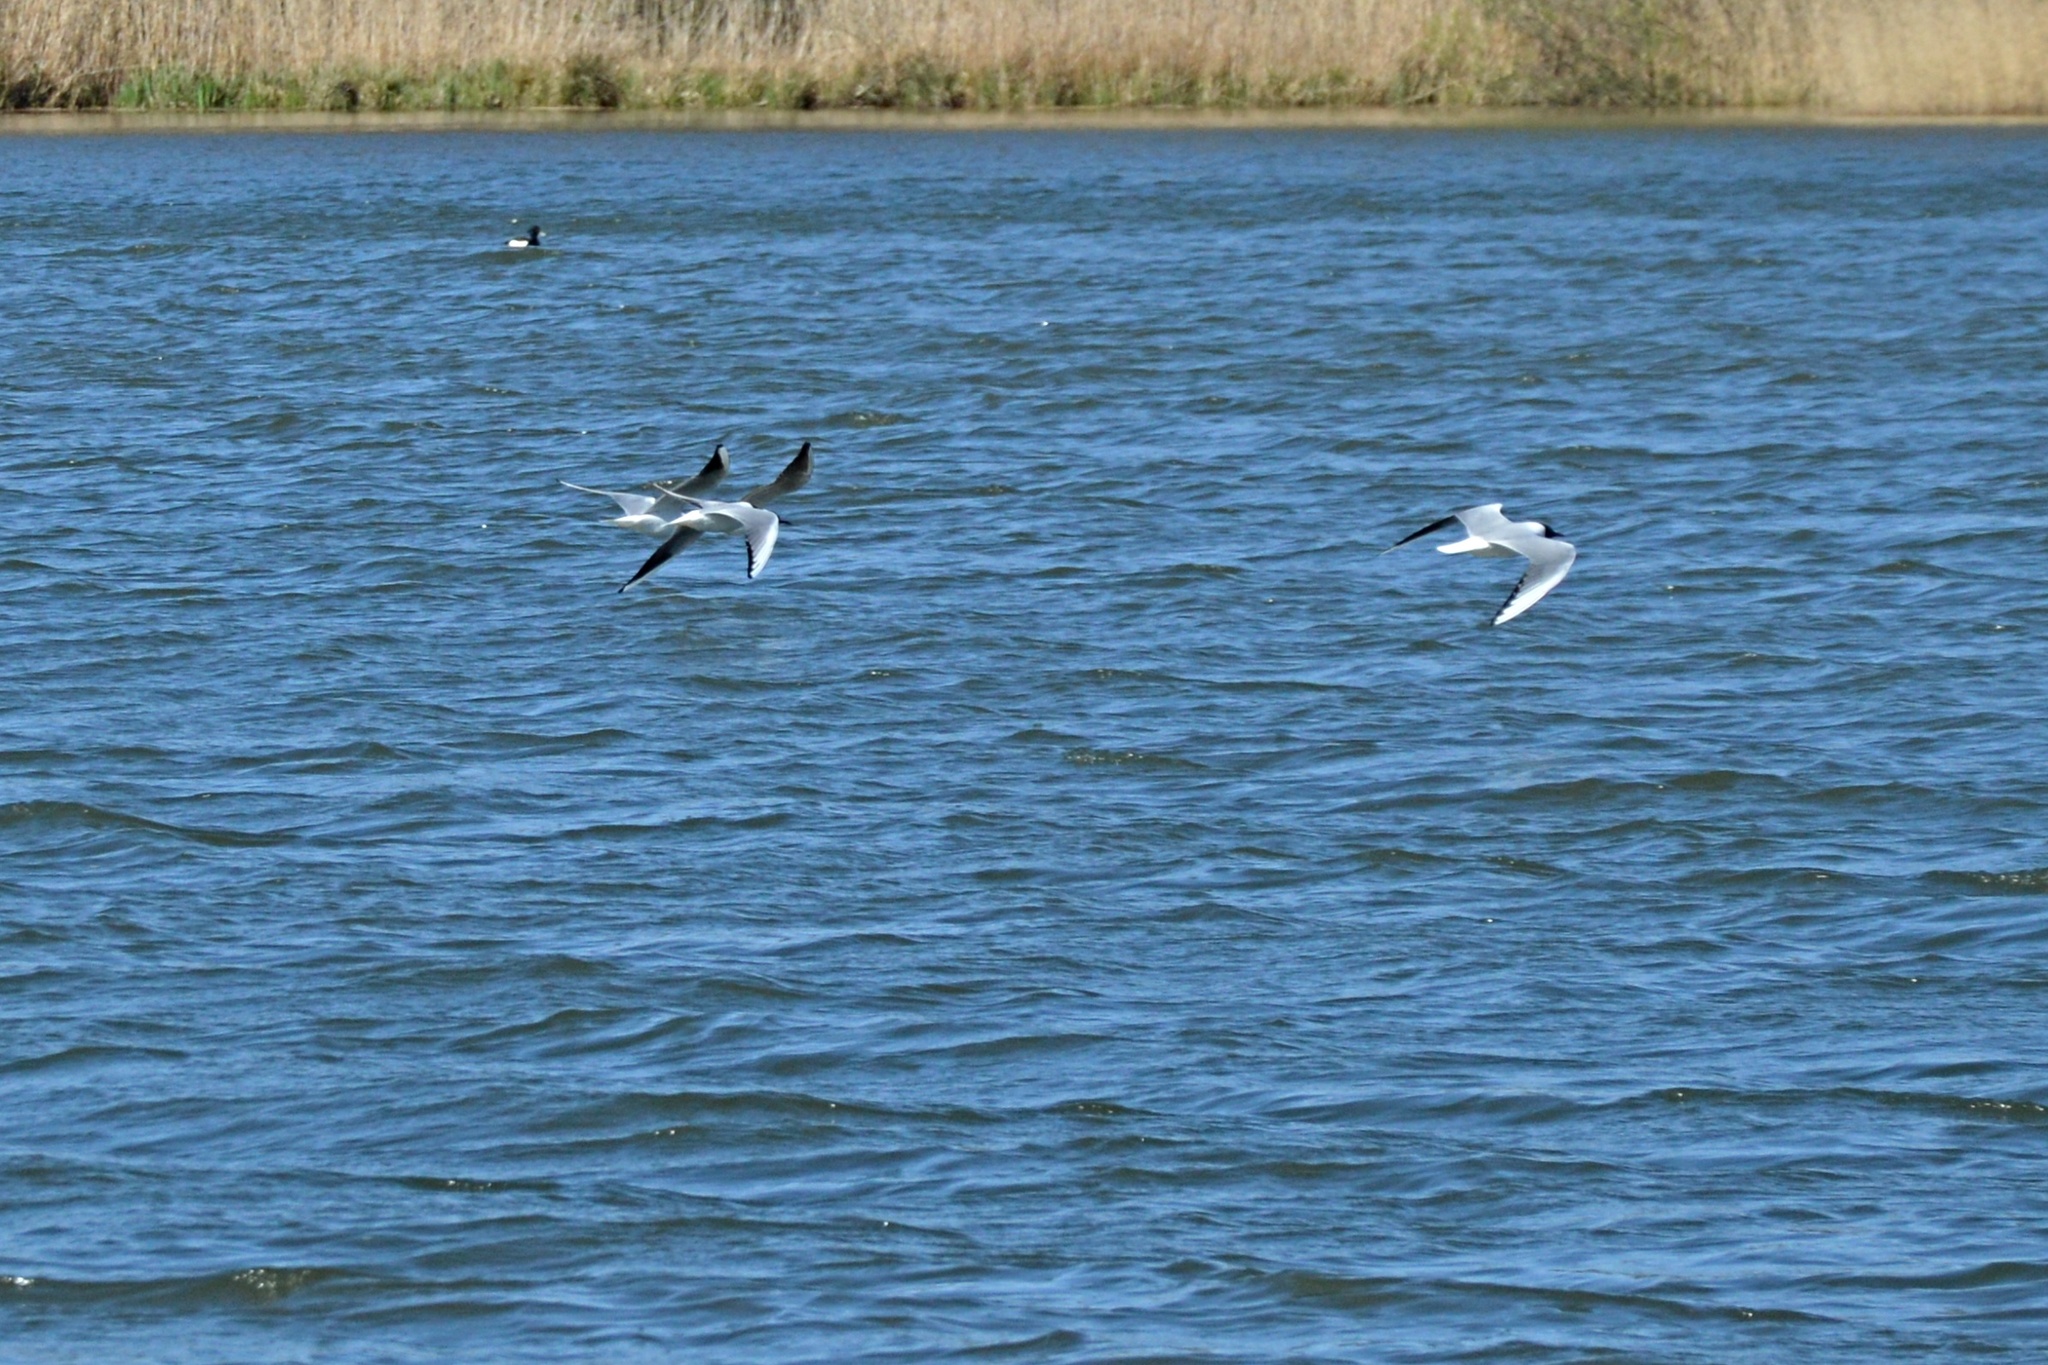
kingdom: Animalia
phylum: Chordata
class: Aves
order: Charadriiformes
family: Laridae
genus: Chroicocephalus
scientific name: Chroicocephalus ridibundus
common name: Black-headed gull
